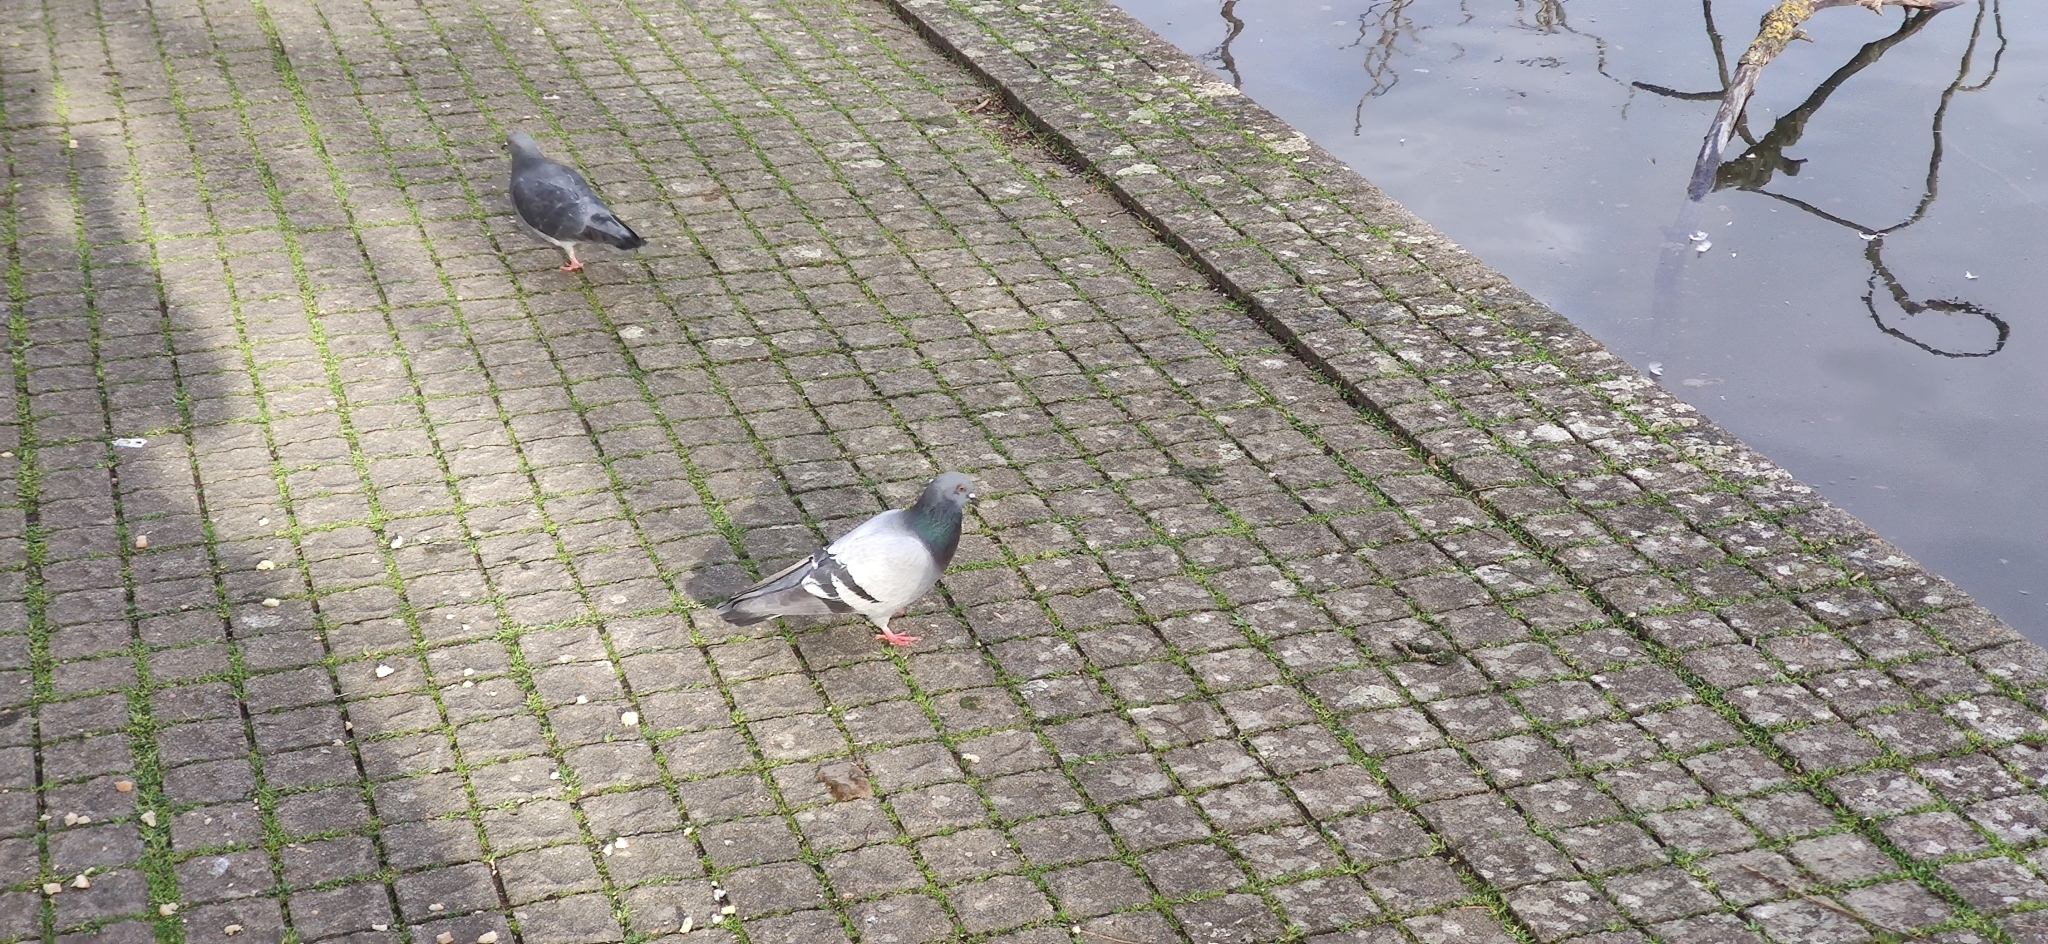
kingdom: Animalia
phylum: Chordata
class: Aves
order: Columbiformes
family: Columbidae
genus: Columba
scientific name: Columba livia
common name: Rock pigeon
